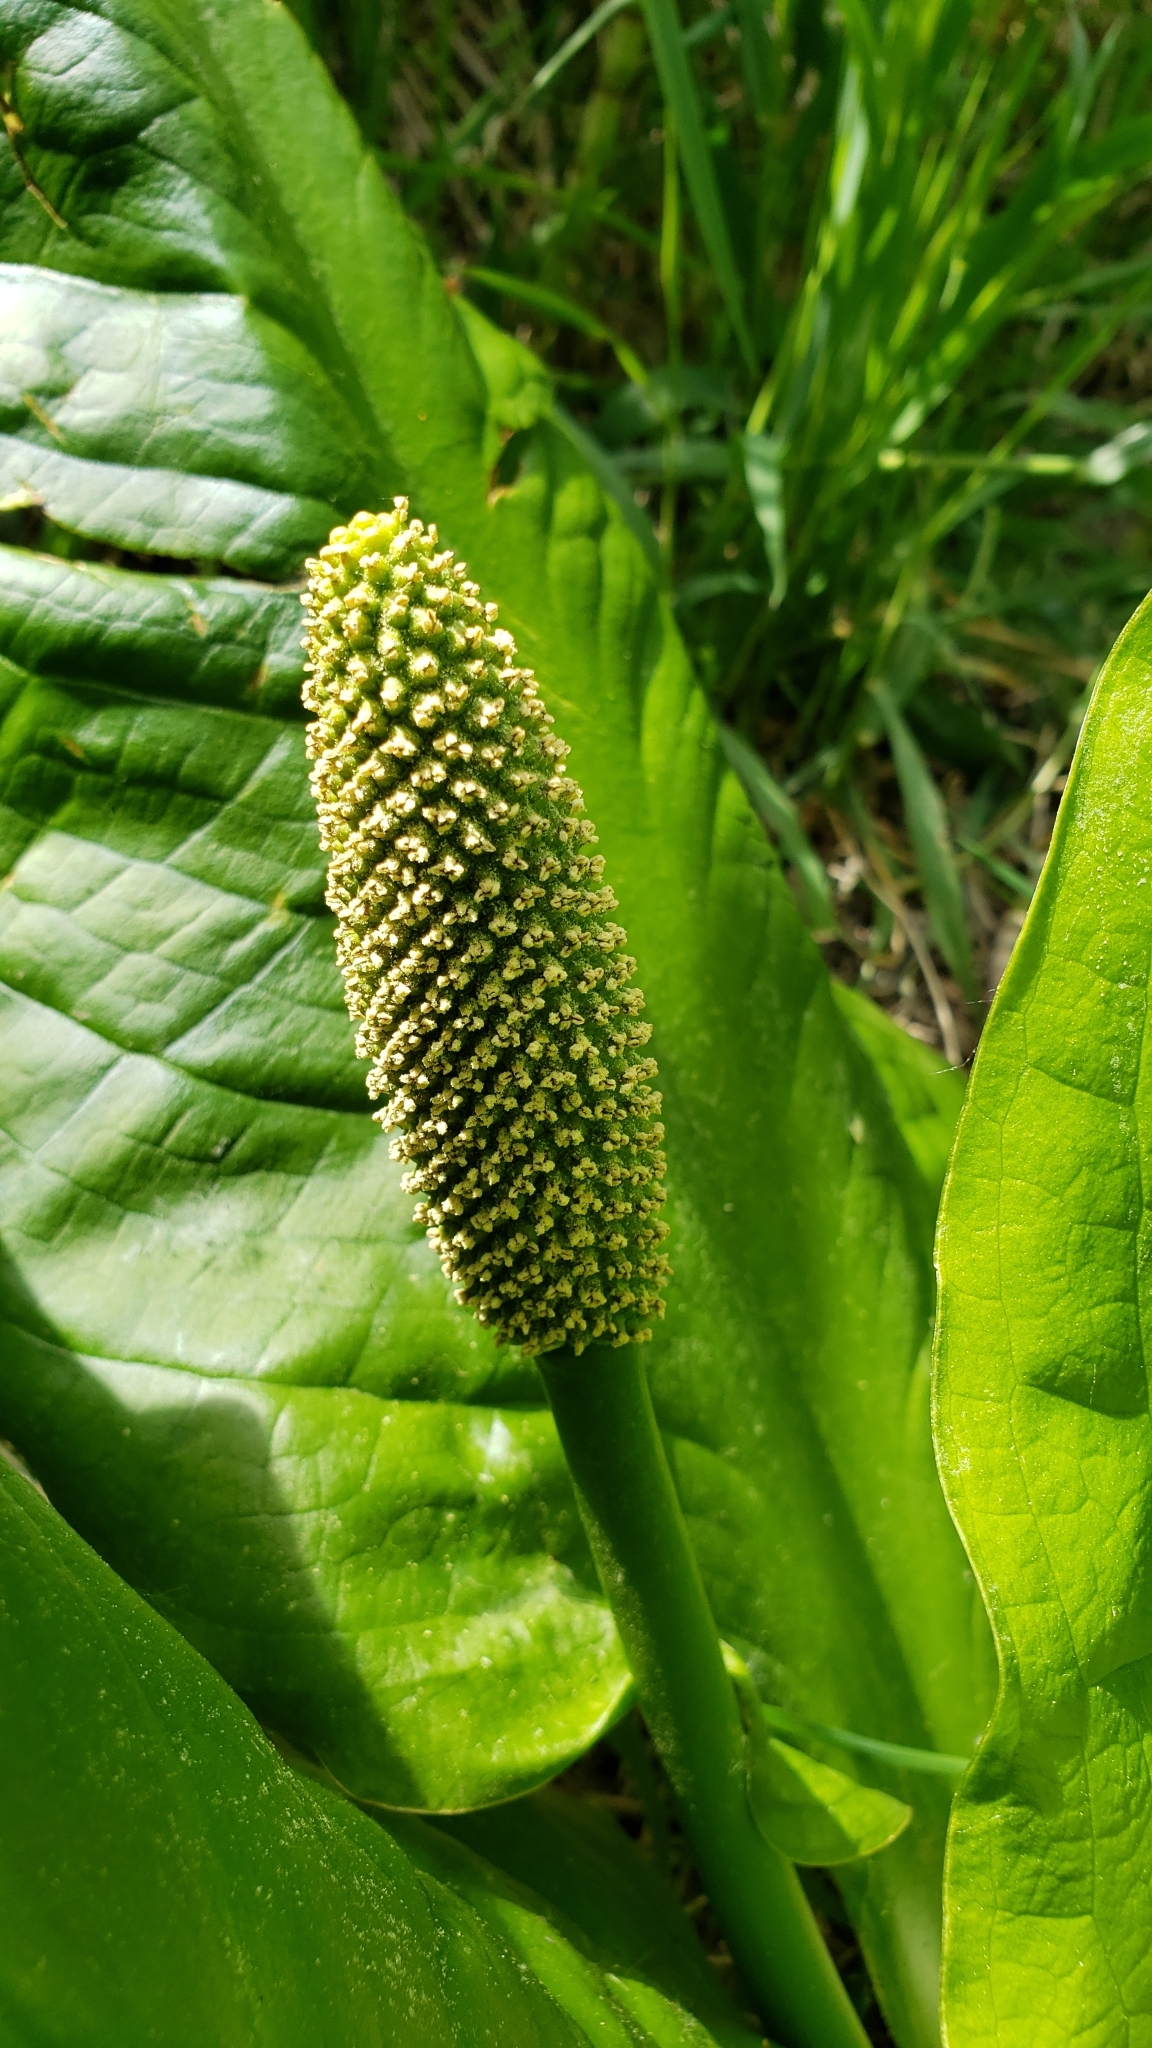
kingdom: Plantae
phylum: Tracheophyta
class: Liliopsida
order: Alismatales
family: Araceae
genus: Lysichiton
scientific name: Lysichiton americanus
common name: American skunk cabbage
